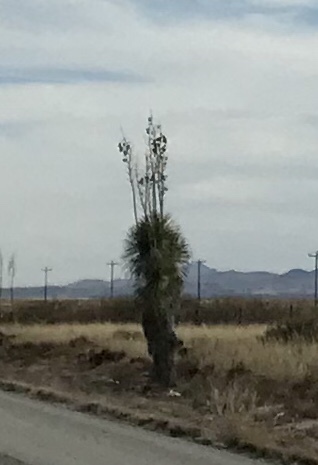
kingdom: Plantae
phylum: Tracheophyta
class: Liliopsida
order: Asparagales
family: Asparagaceae
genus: Yucca
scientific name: Yucca elata
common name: Palmella
